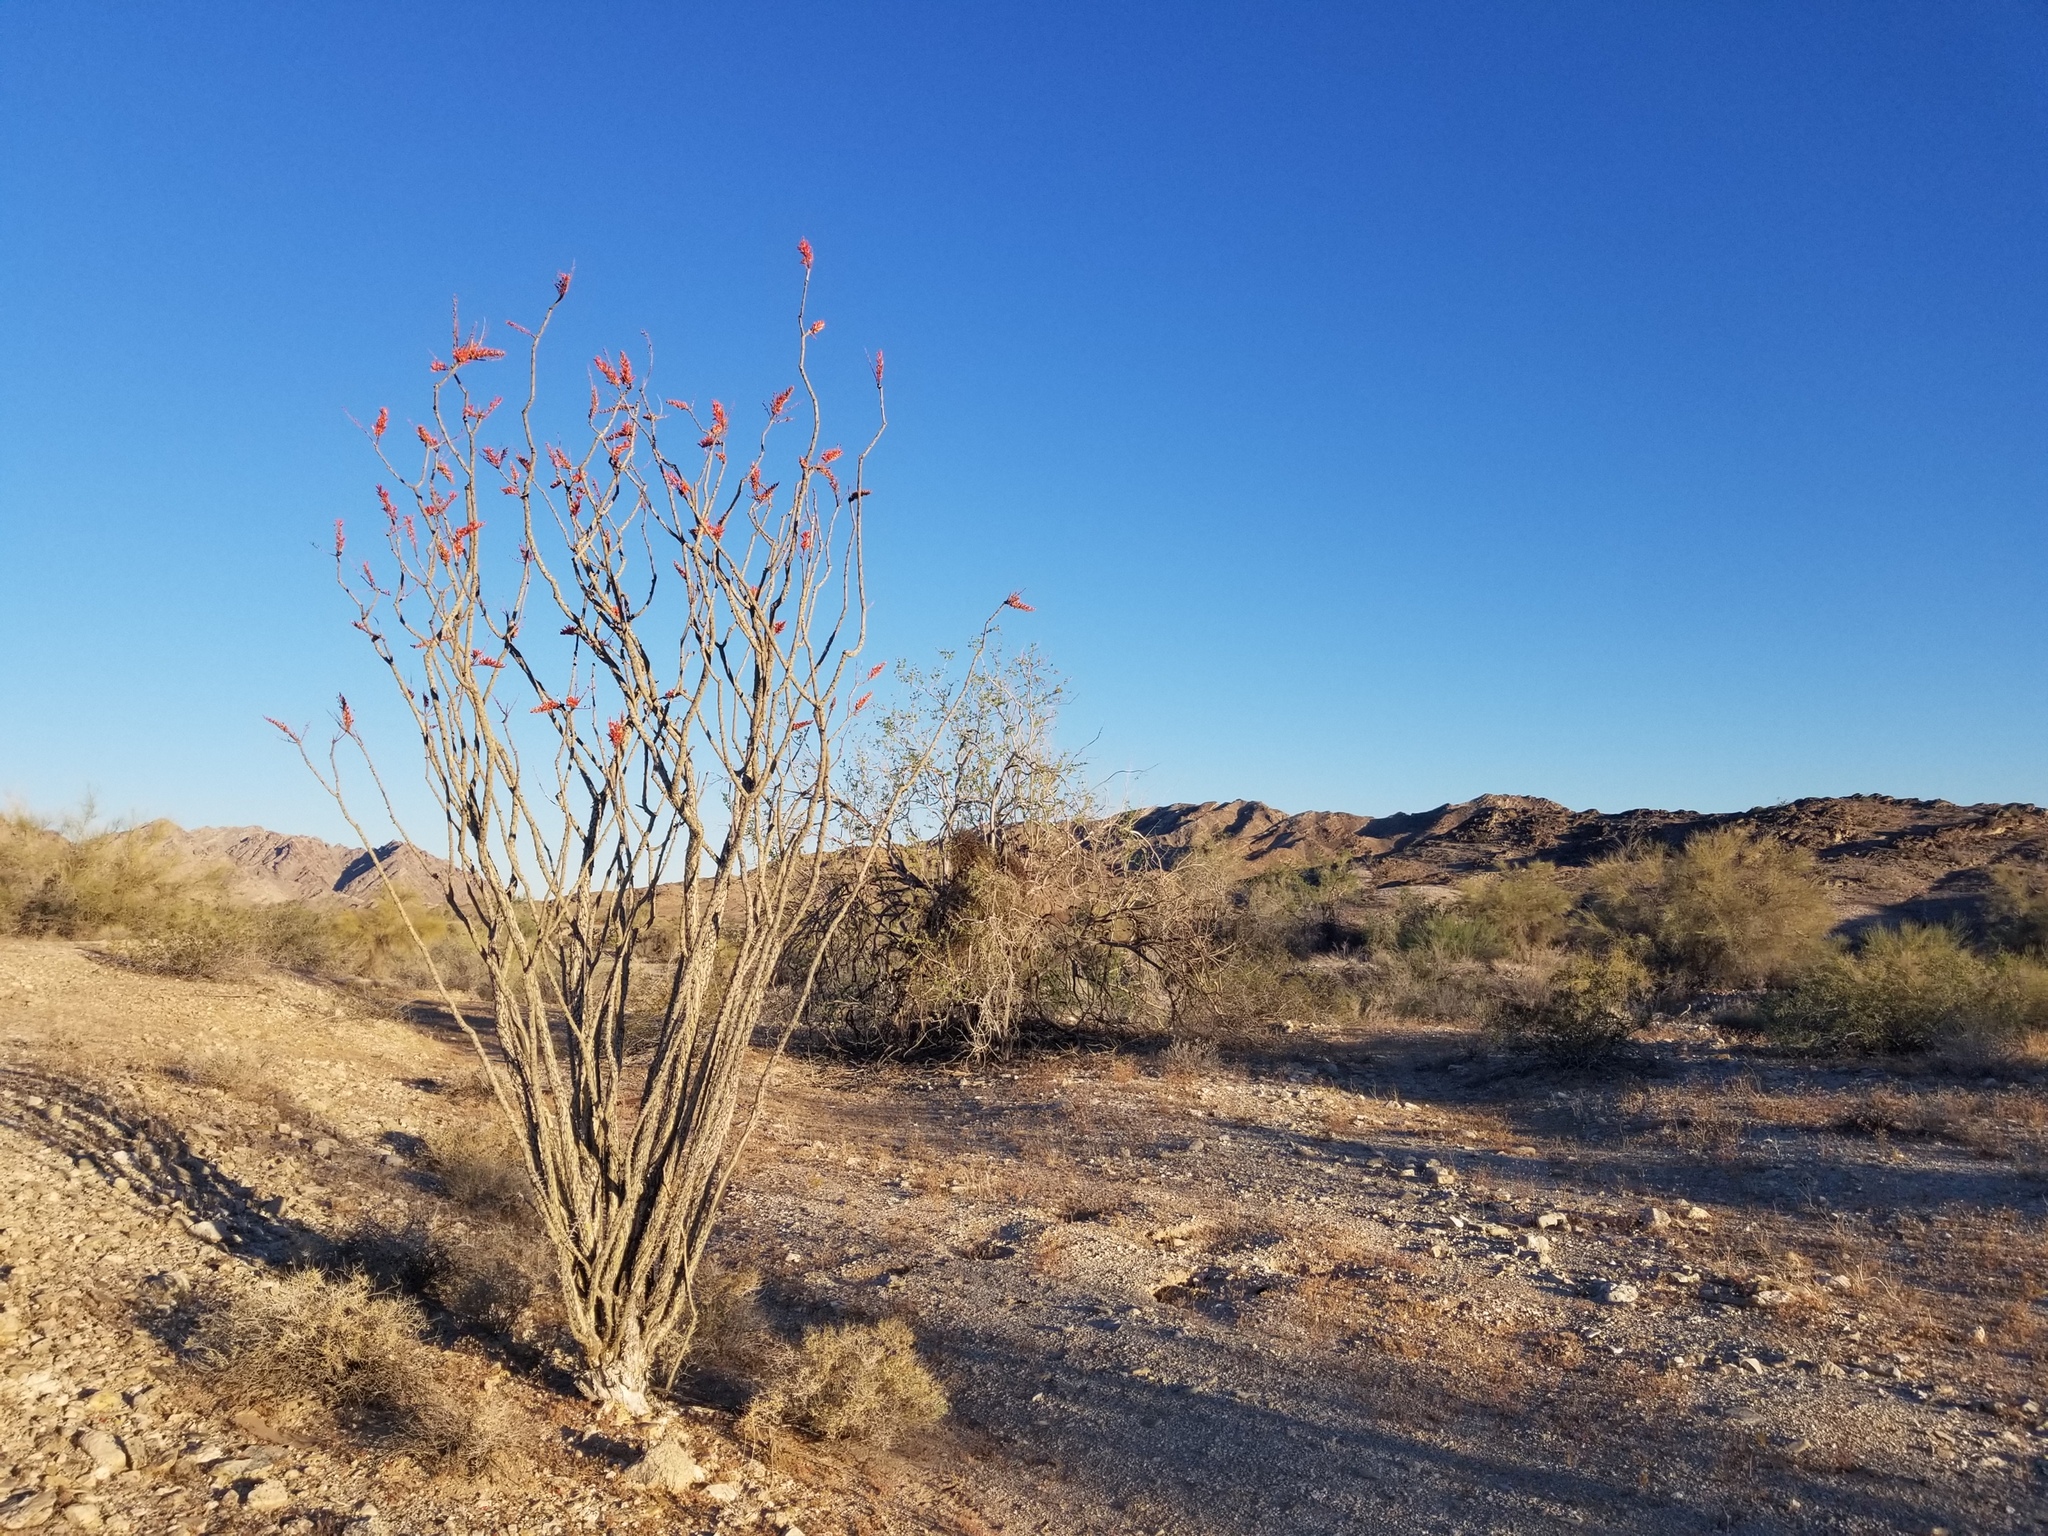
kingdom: Plantae
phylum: Tracheophyta
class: Magnoliopsida
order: Ericales
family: Fouquieriaceae
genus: Fouquieria
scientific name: Fouquieria splendens
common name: Vine-cactus
